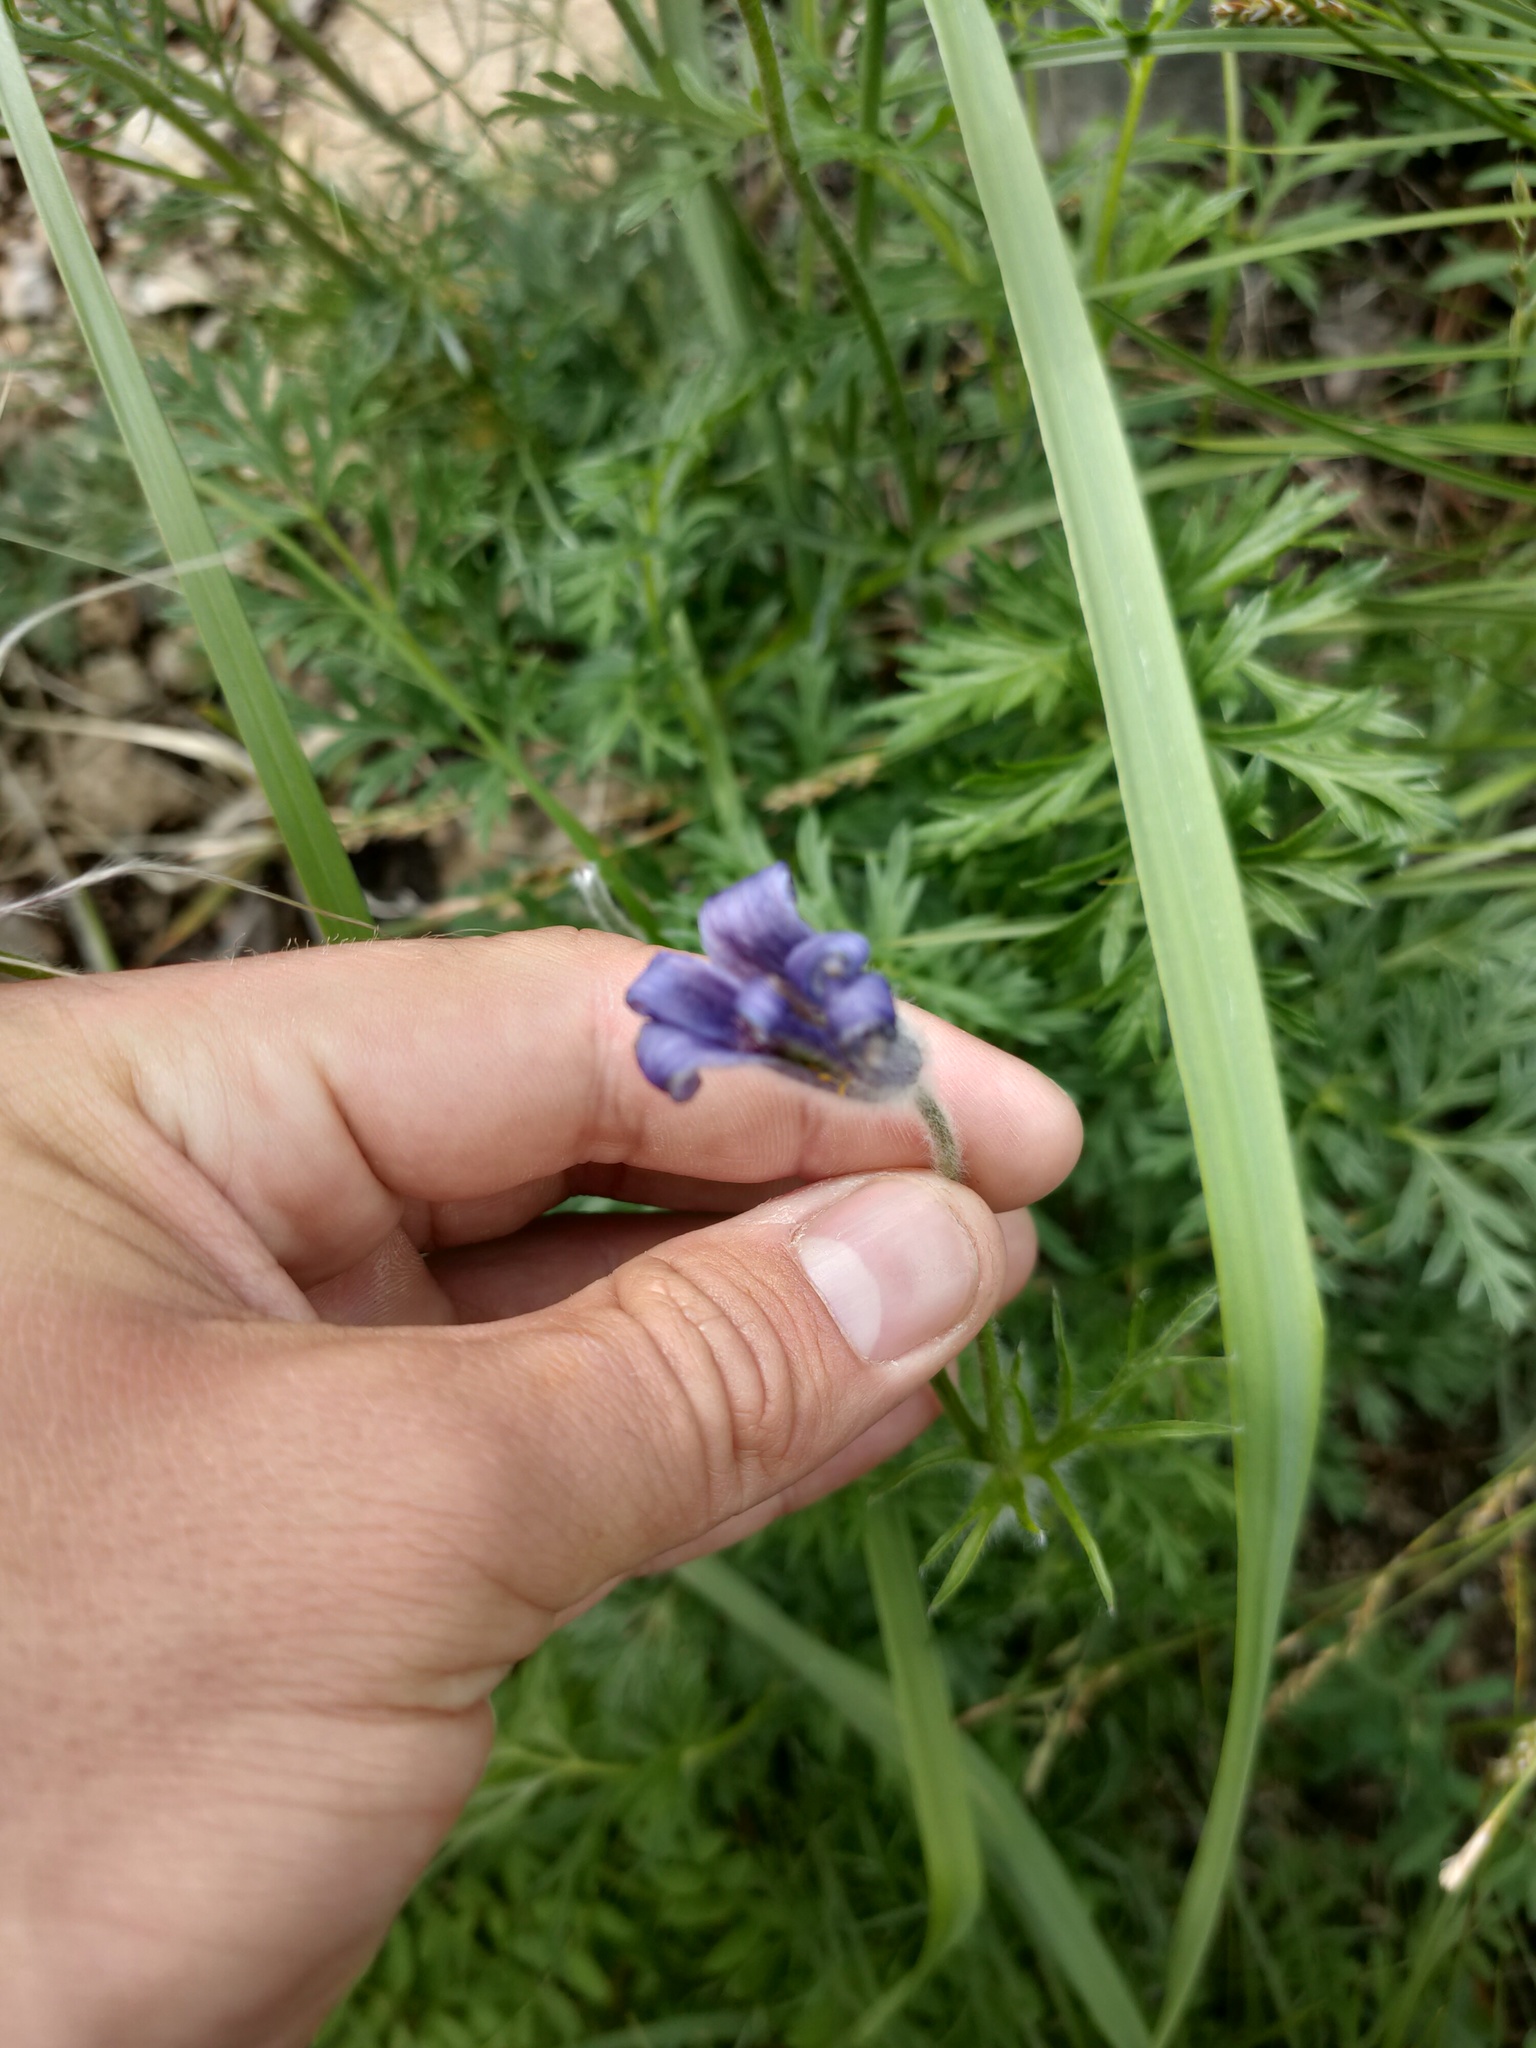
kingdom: Plantae
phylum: Tracheophyta
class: Magnoliopsida
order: Ranunculales
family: Ranunculaceae
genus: Pulsatilla
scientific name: Pulsatilla ambigua
